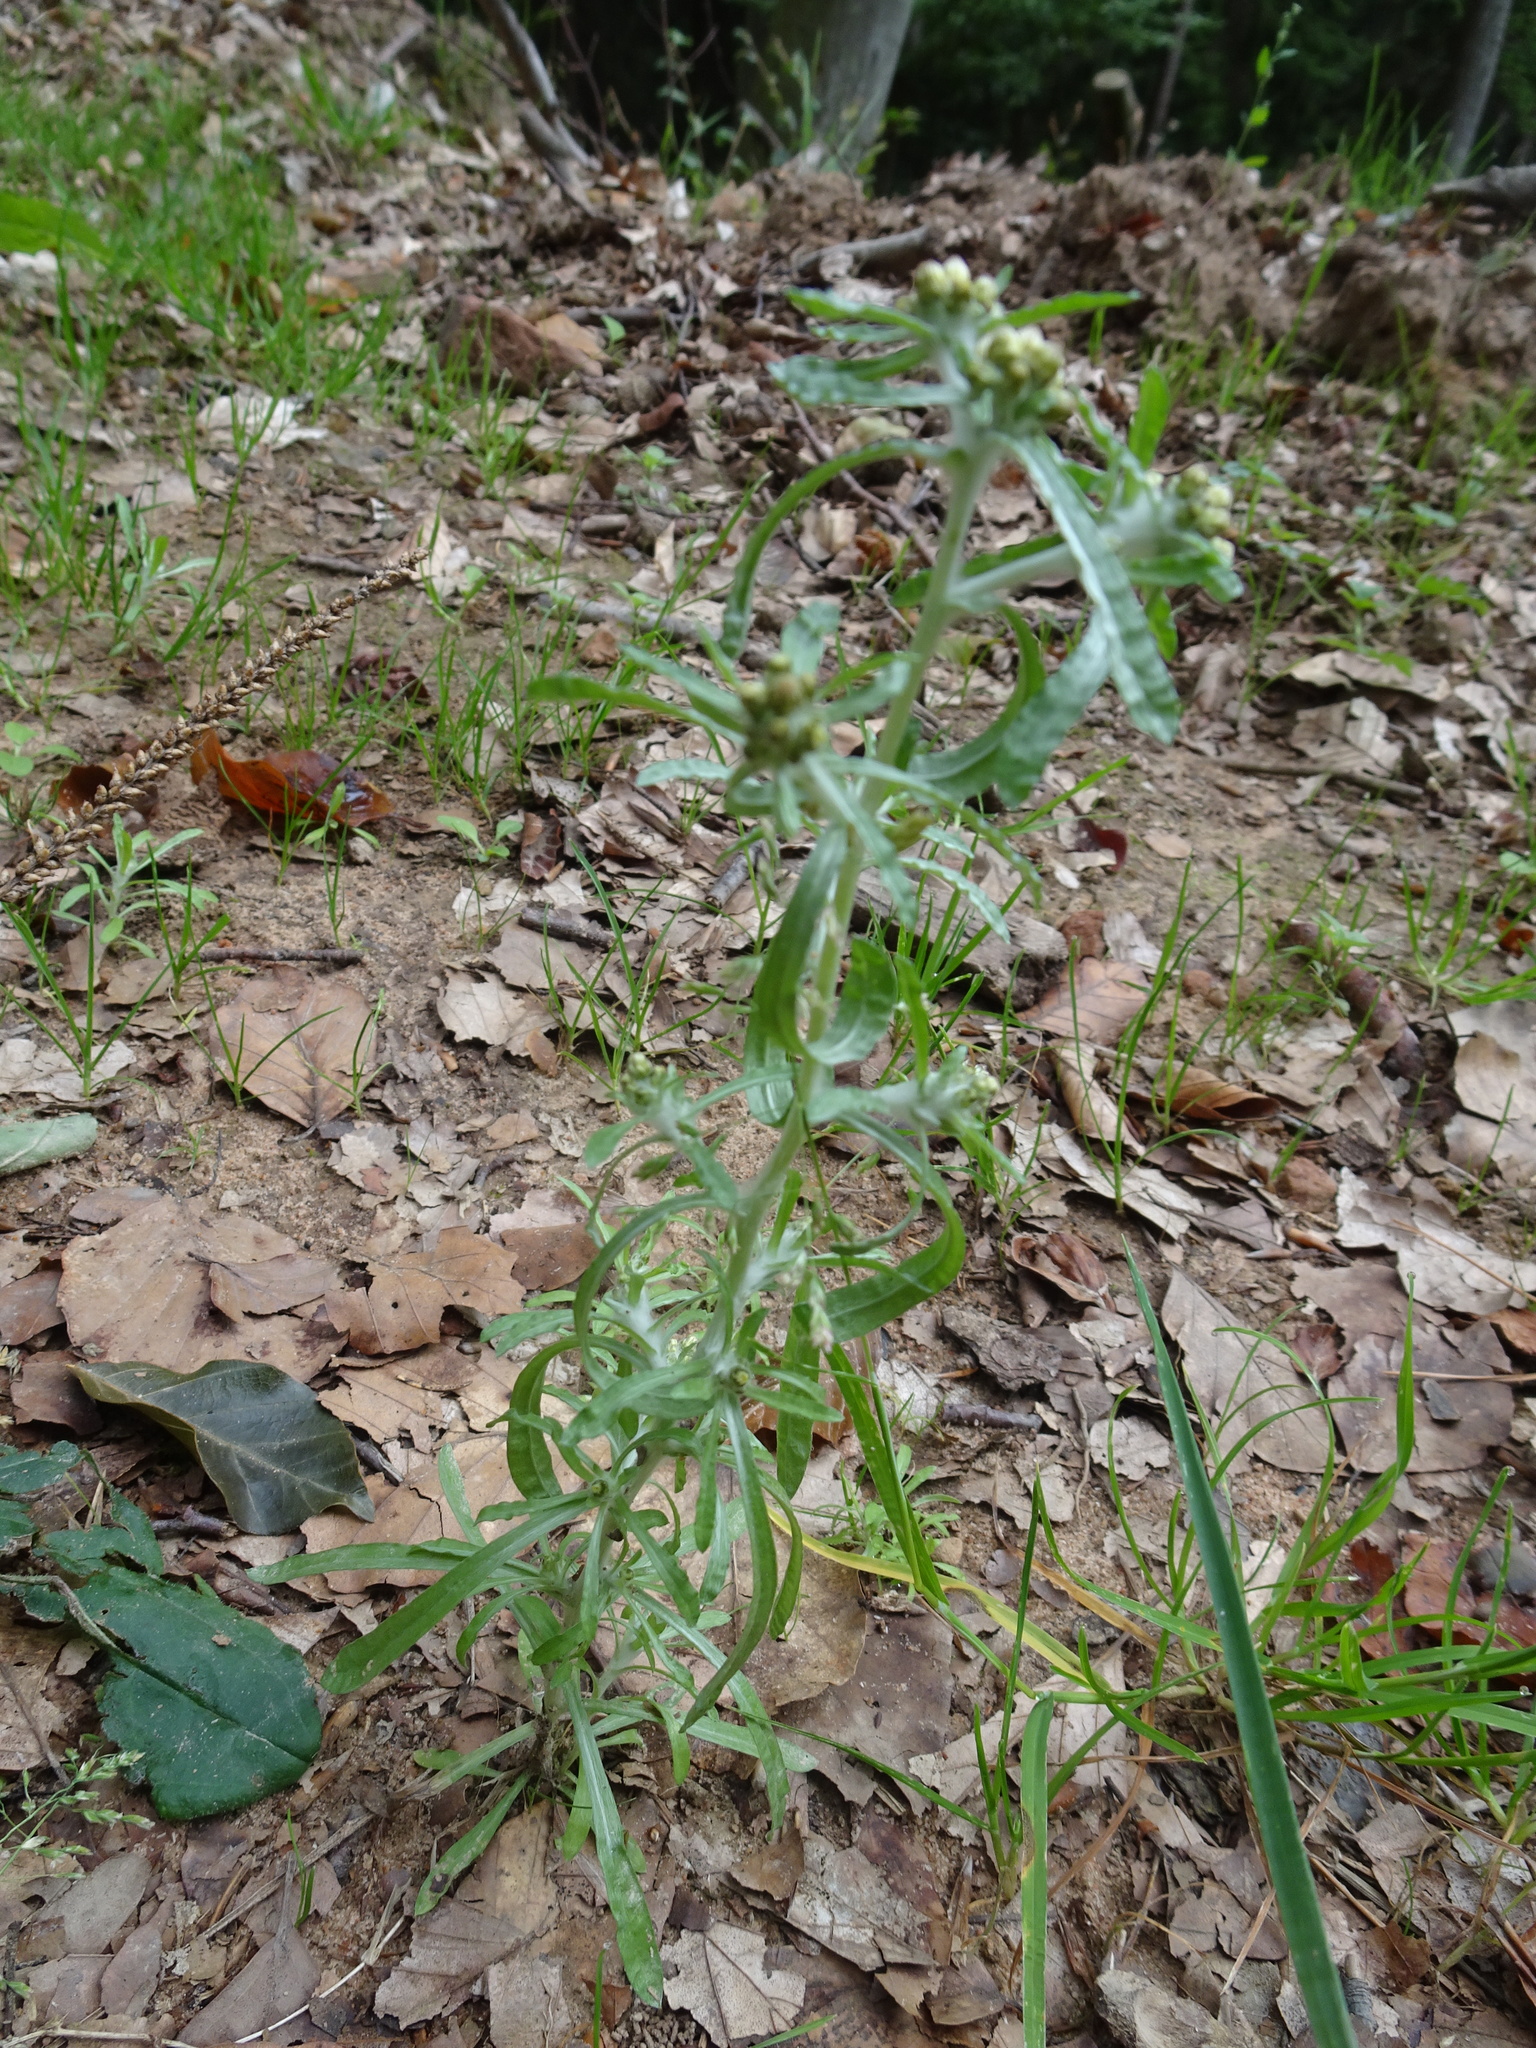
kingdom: Plantae
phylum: Tracheophyta
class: Magnoliopsida
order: Asterales
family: Asteraceae
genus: Gnaphalium
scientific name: Gnaphalium uliginosum
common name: Marsh cudweed
